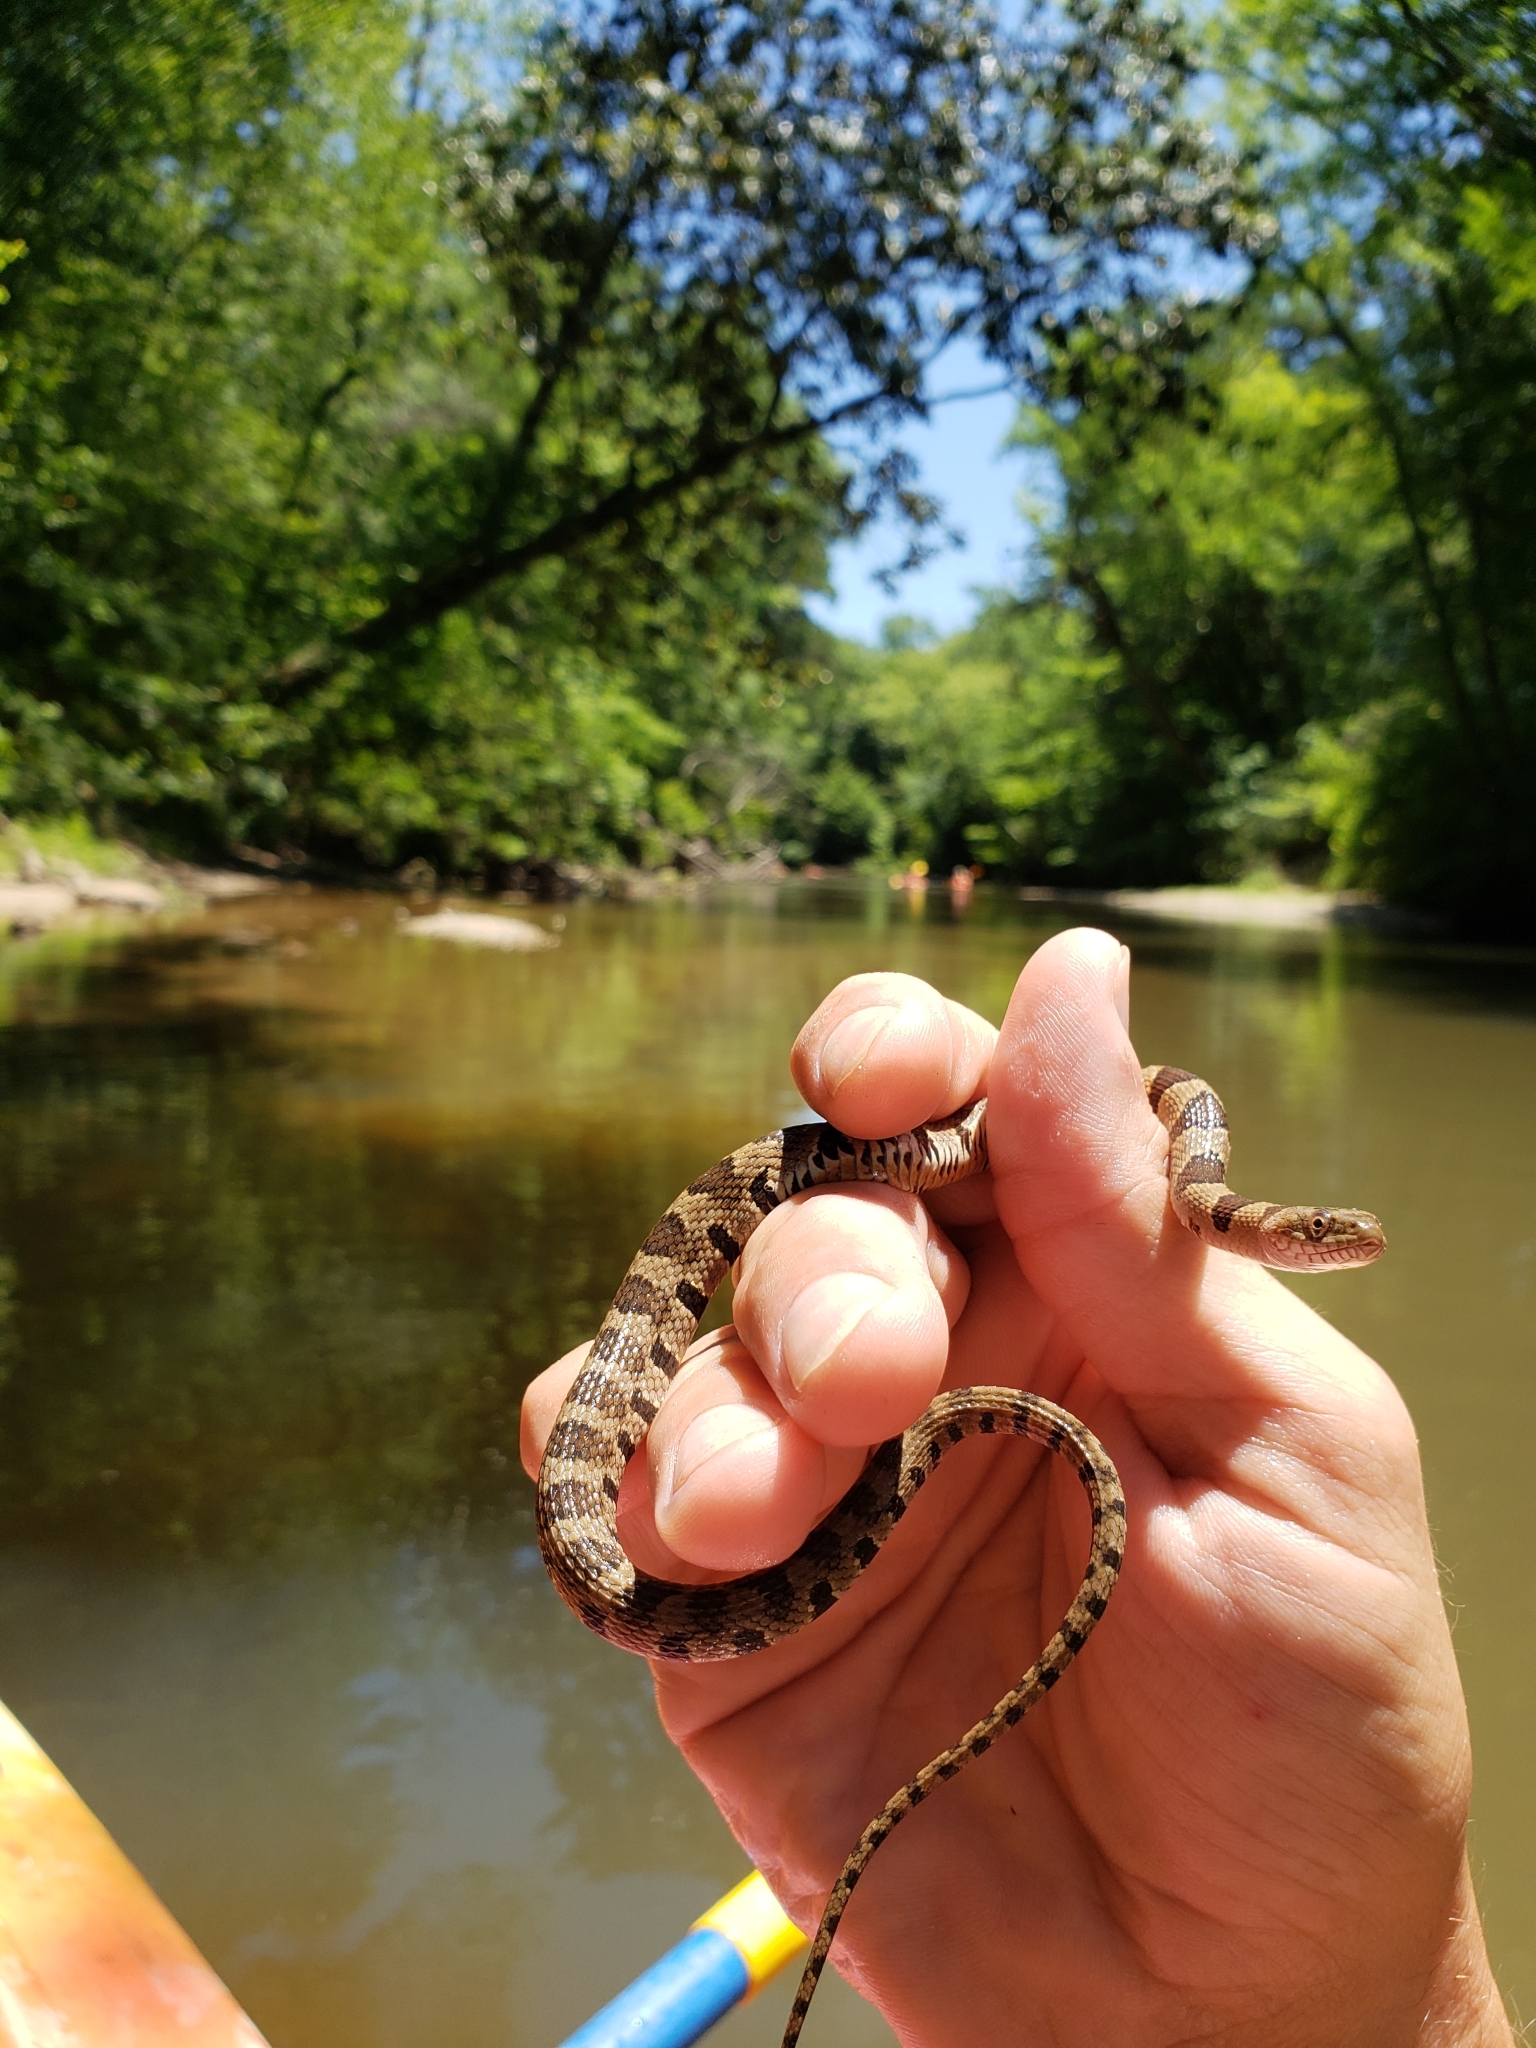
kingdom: Animalia
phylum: Chordata
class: Squamata
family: Colubridae
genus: Nerodia
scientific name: Nerodia sipedon
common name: Northern water snake
